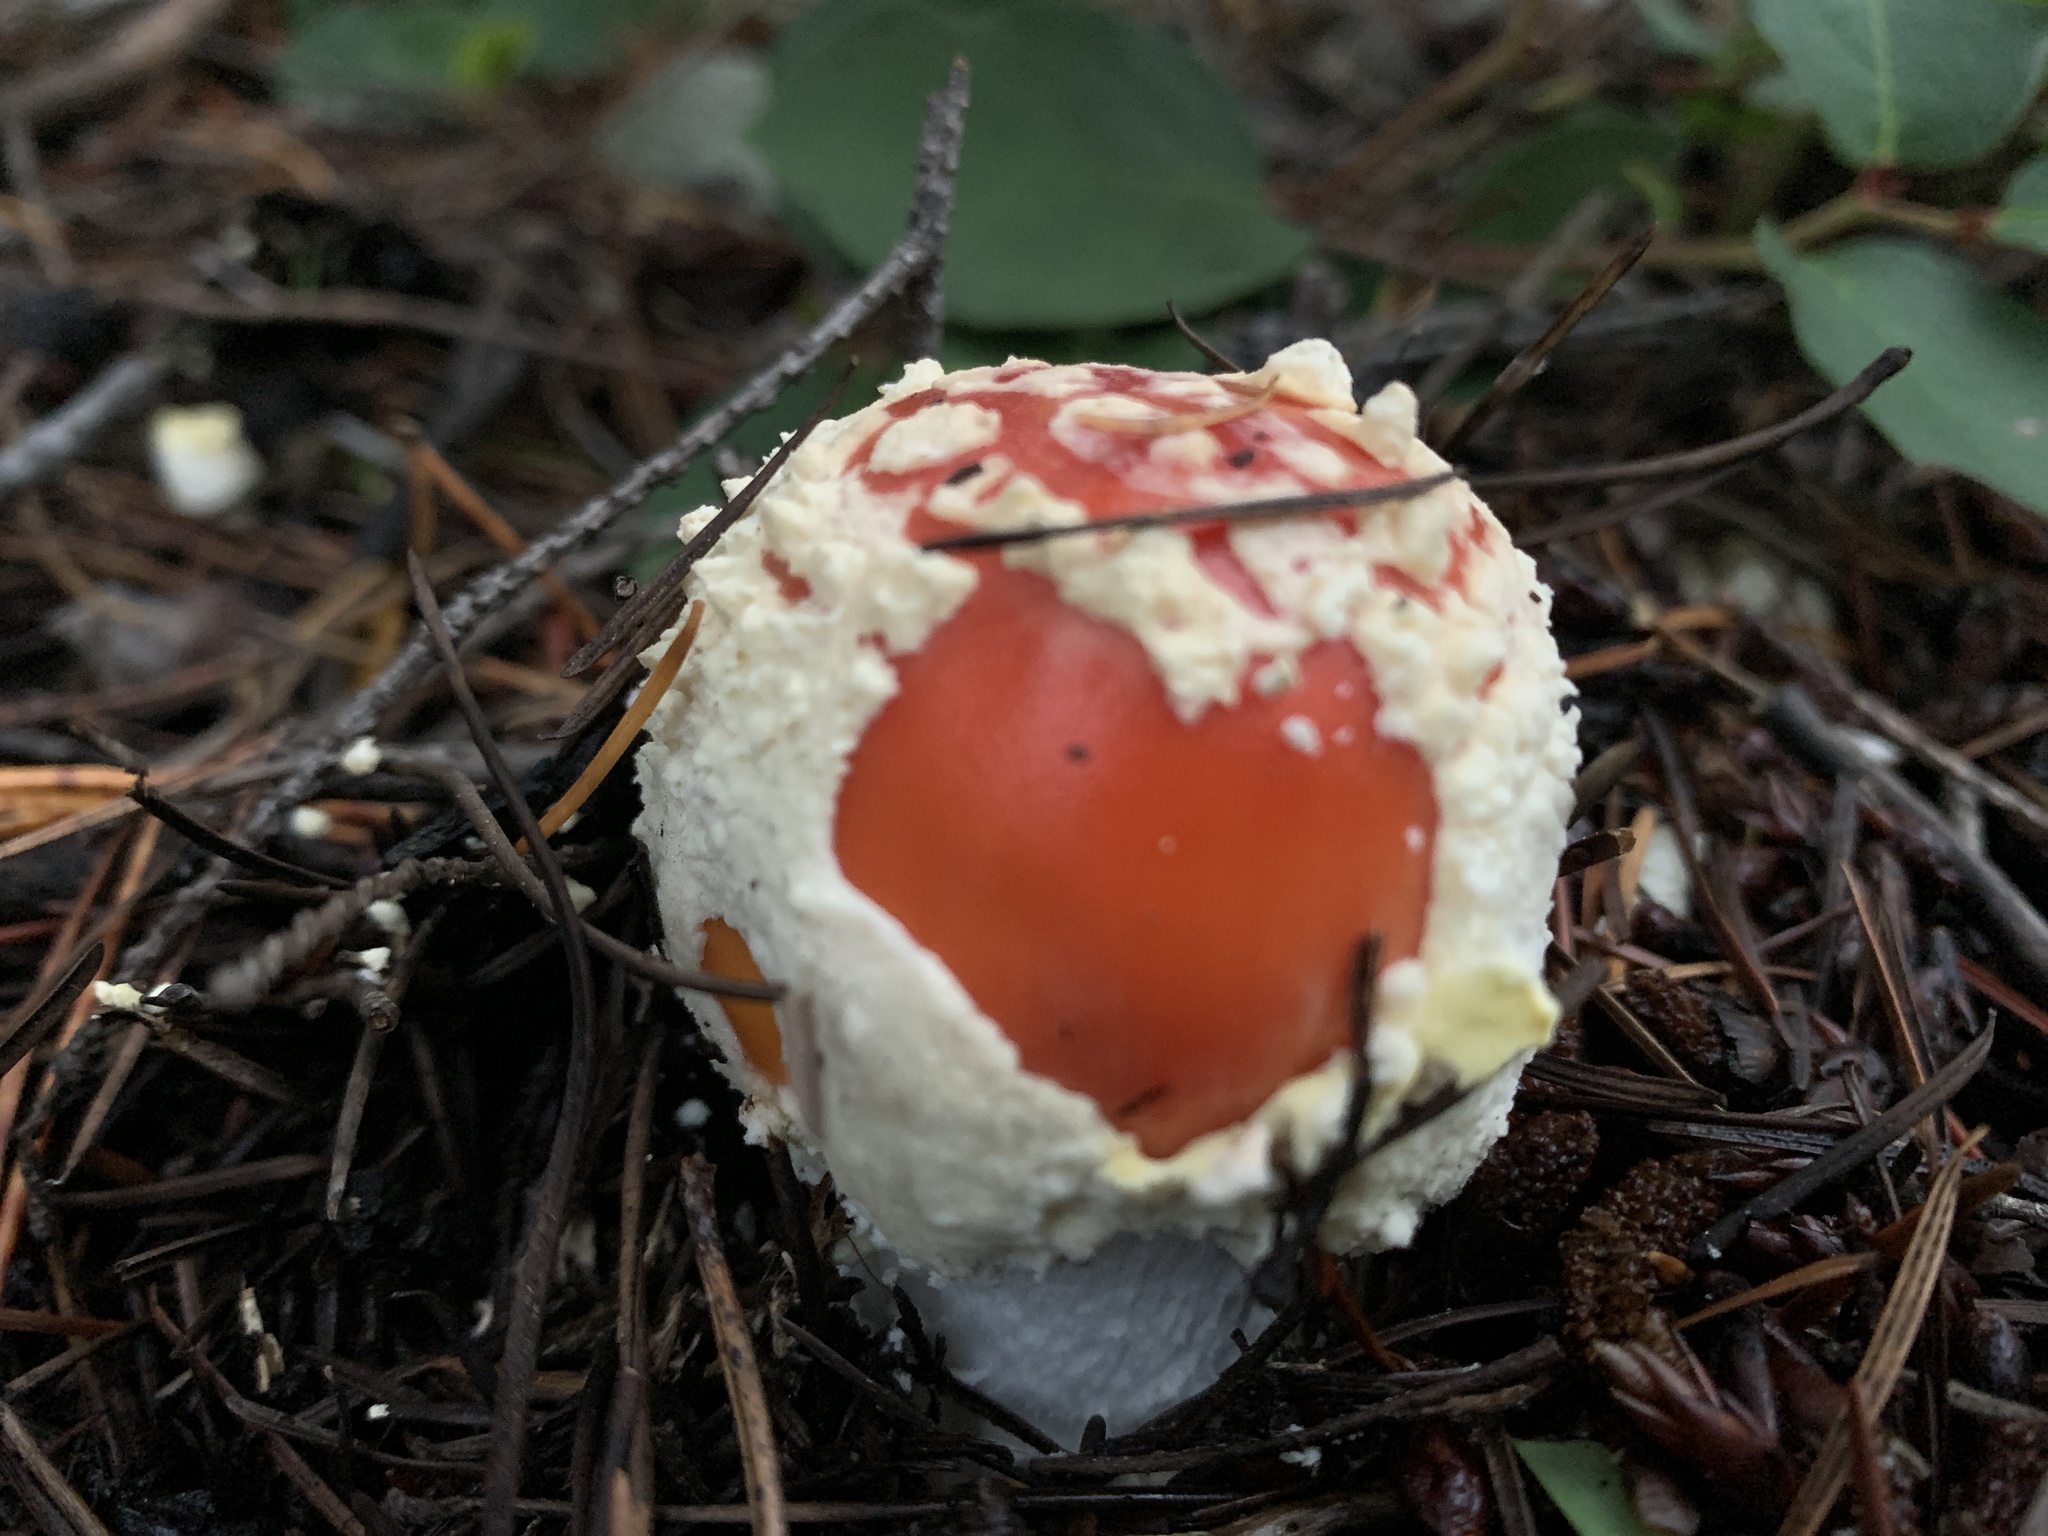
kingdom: Fungi
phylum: Basidiomycota
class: Agaricomycetes
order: Agaricales
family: Amanitaceae
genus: Amanita
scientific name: Amanita muscaria
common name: Fly agaric
